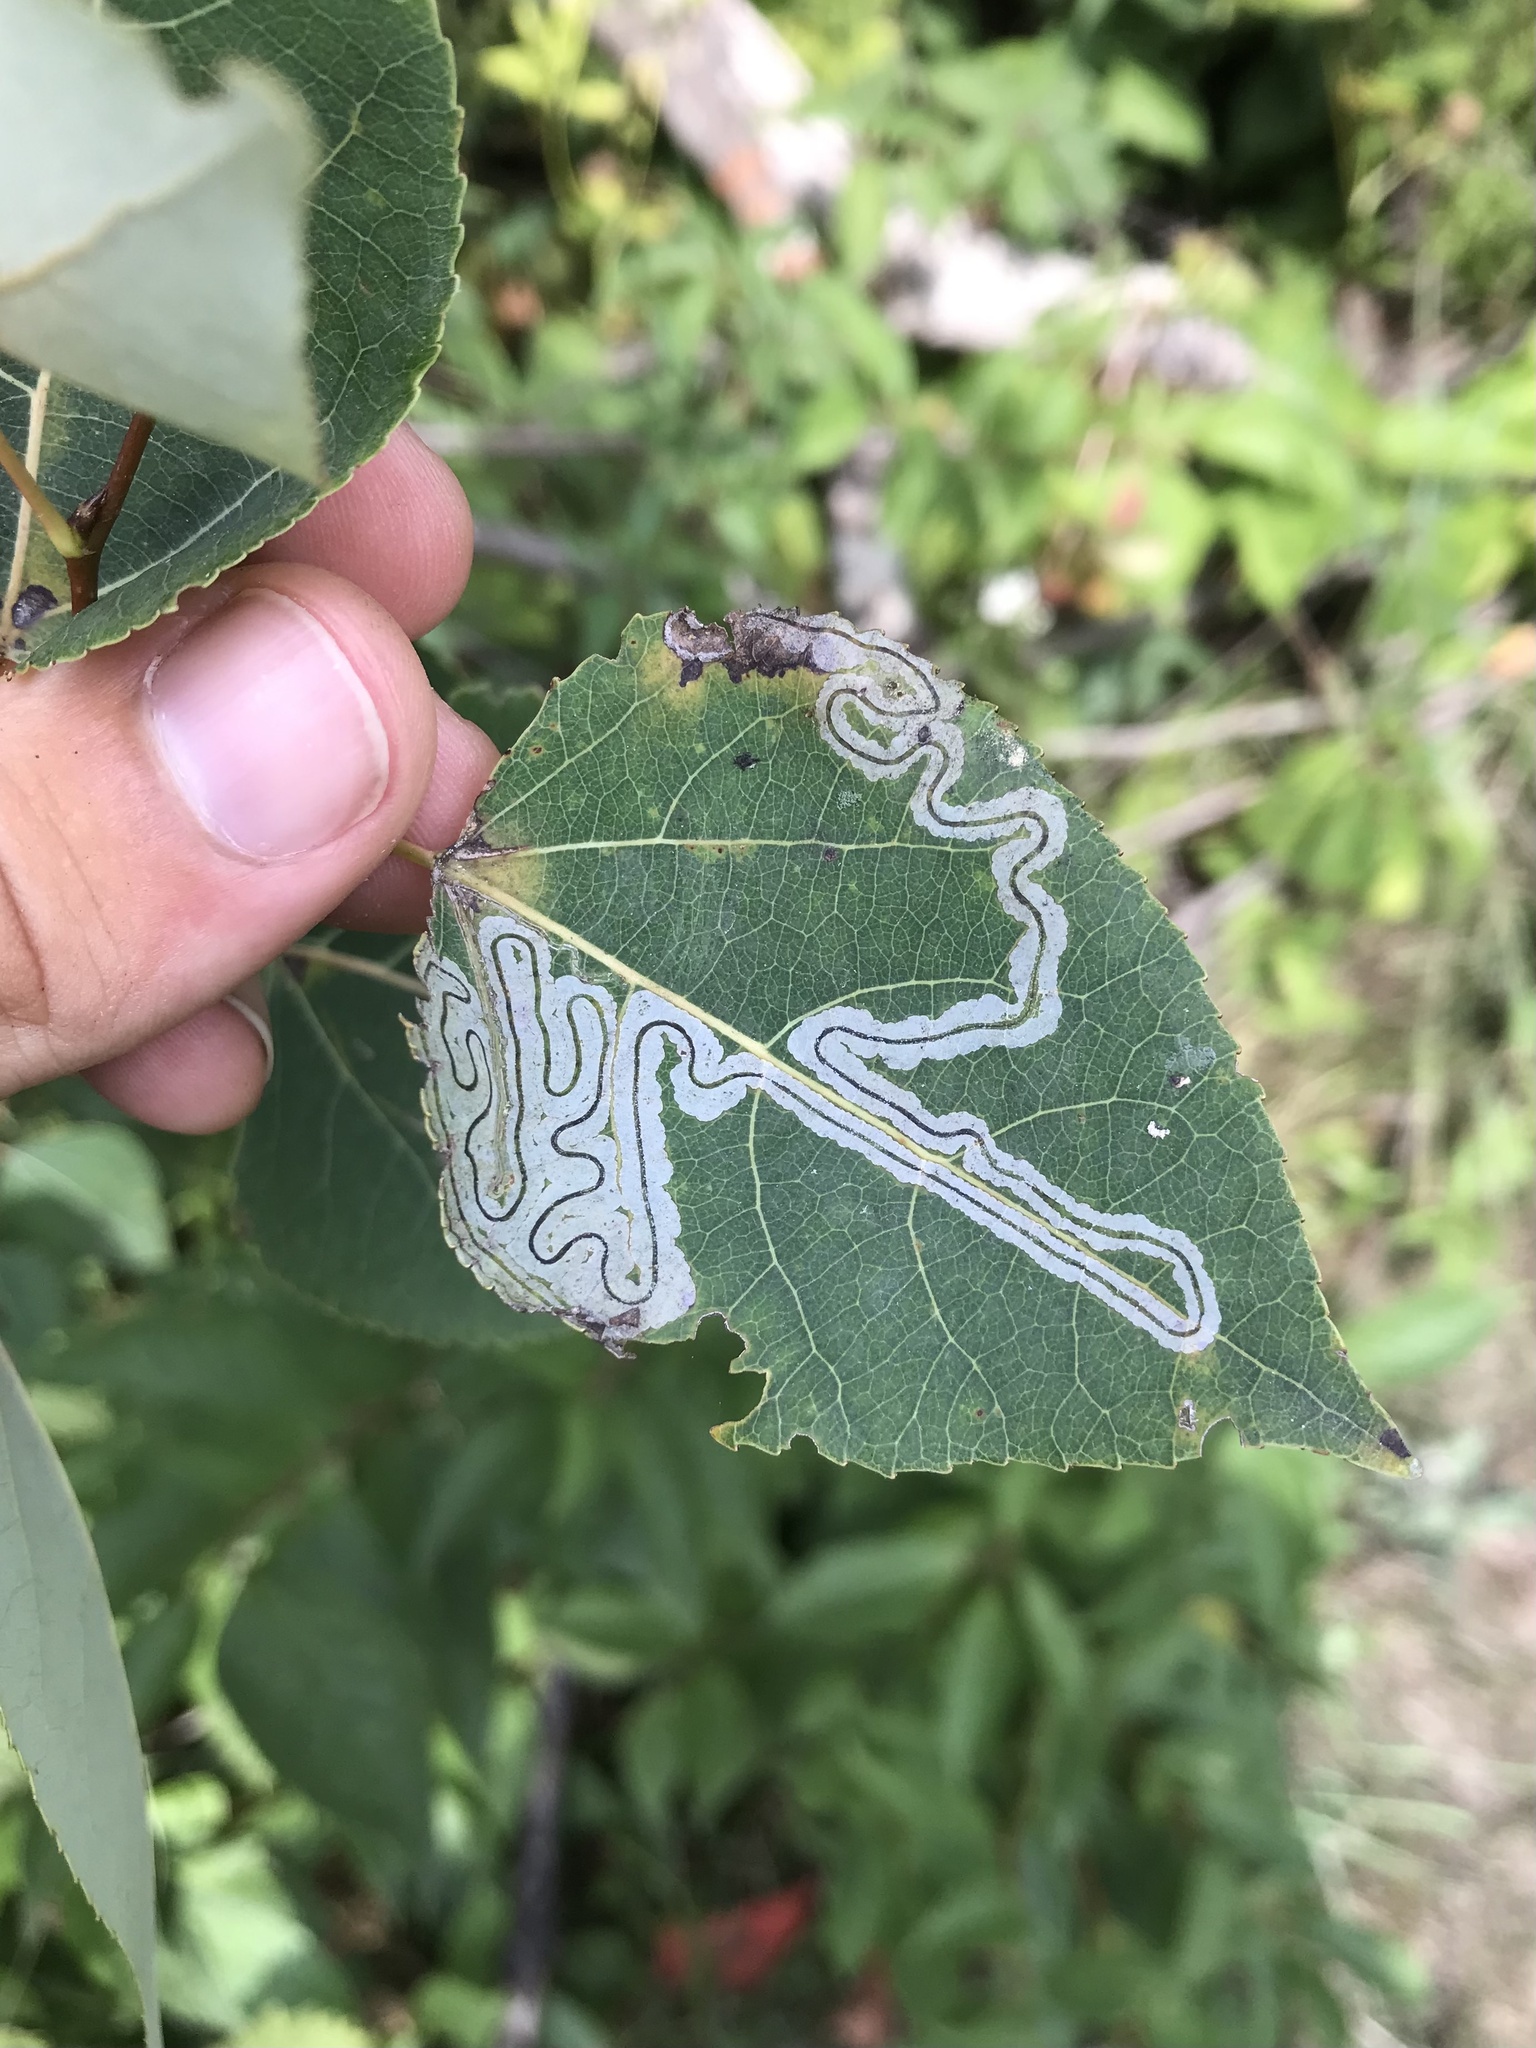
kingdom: Animalia
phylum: Arthropoda
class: Insecta
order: Lepidoptera
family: Gracillariidae
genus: Phyllocnistis
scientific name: Phyllocnistis populiella
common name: Aspen serpentine leafminer moth
